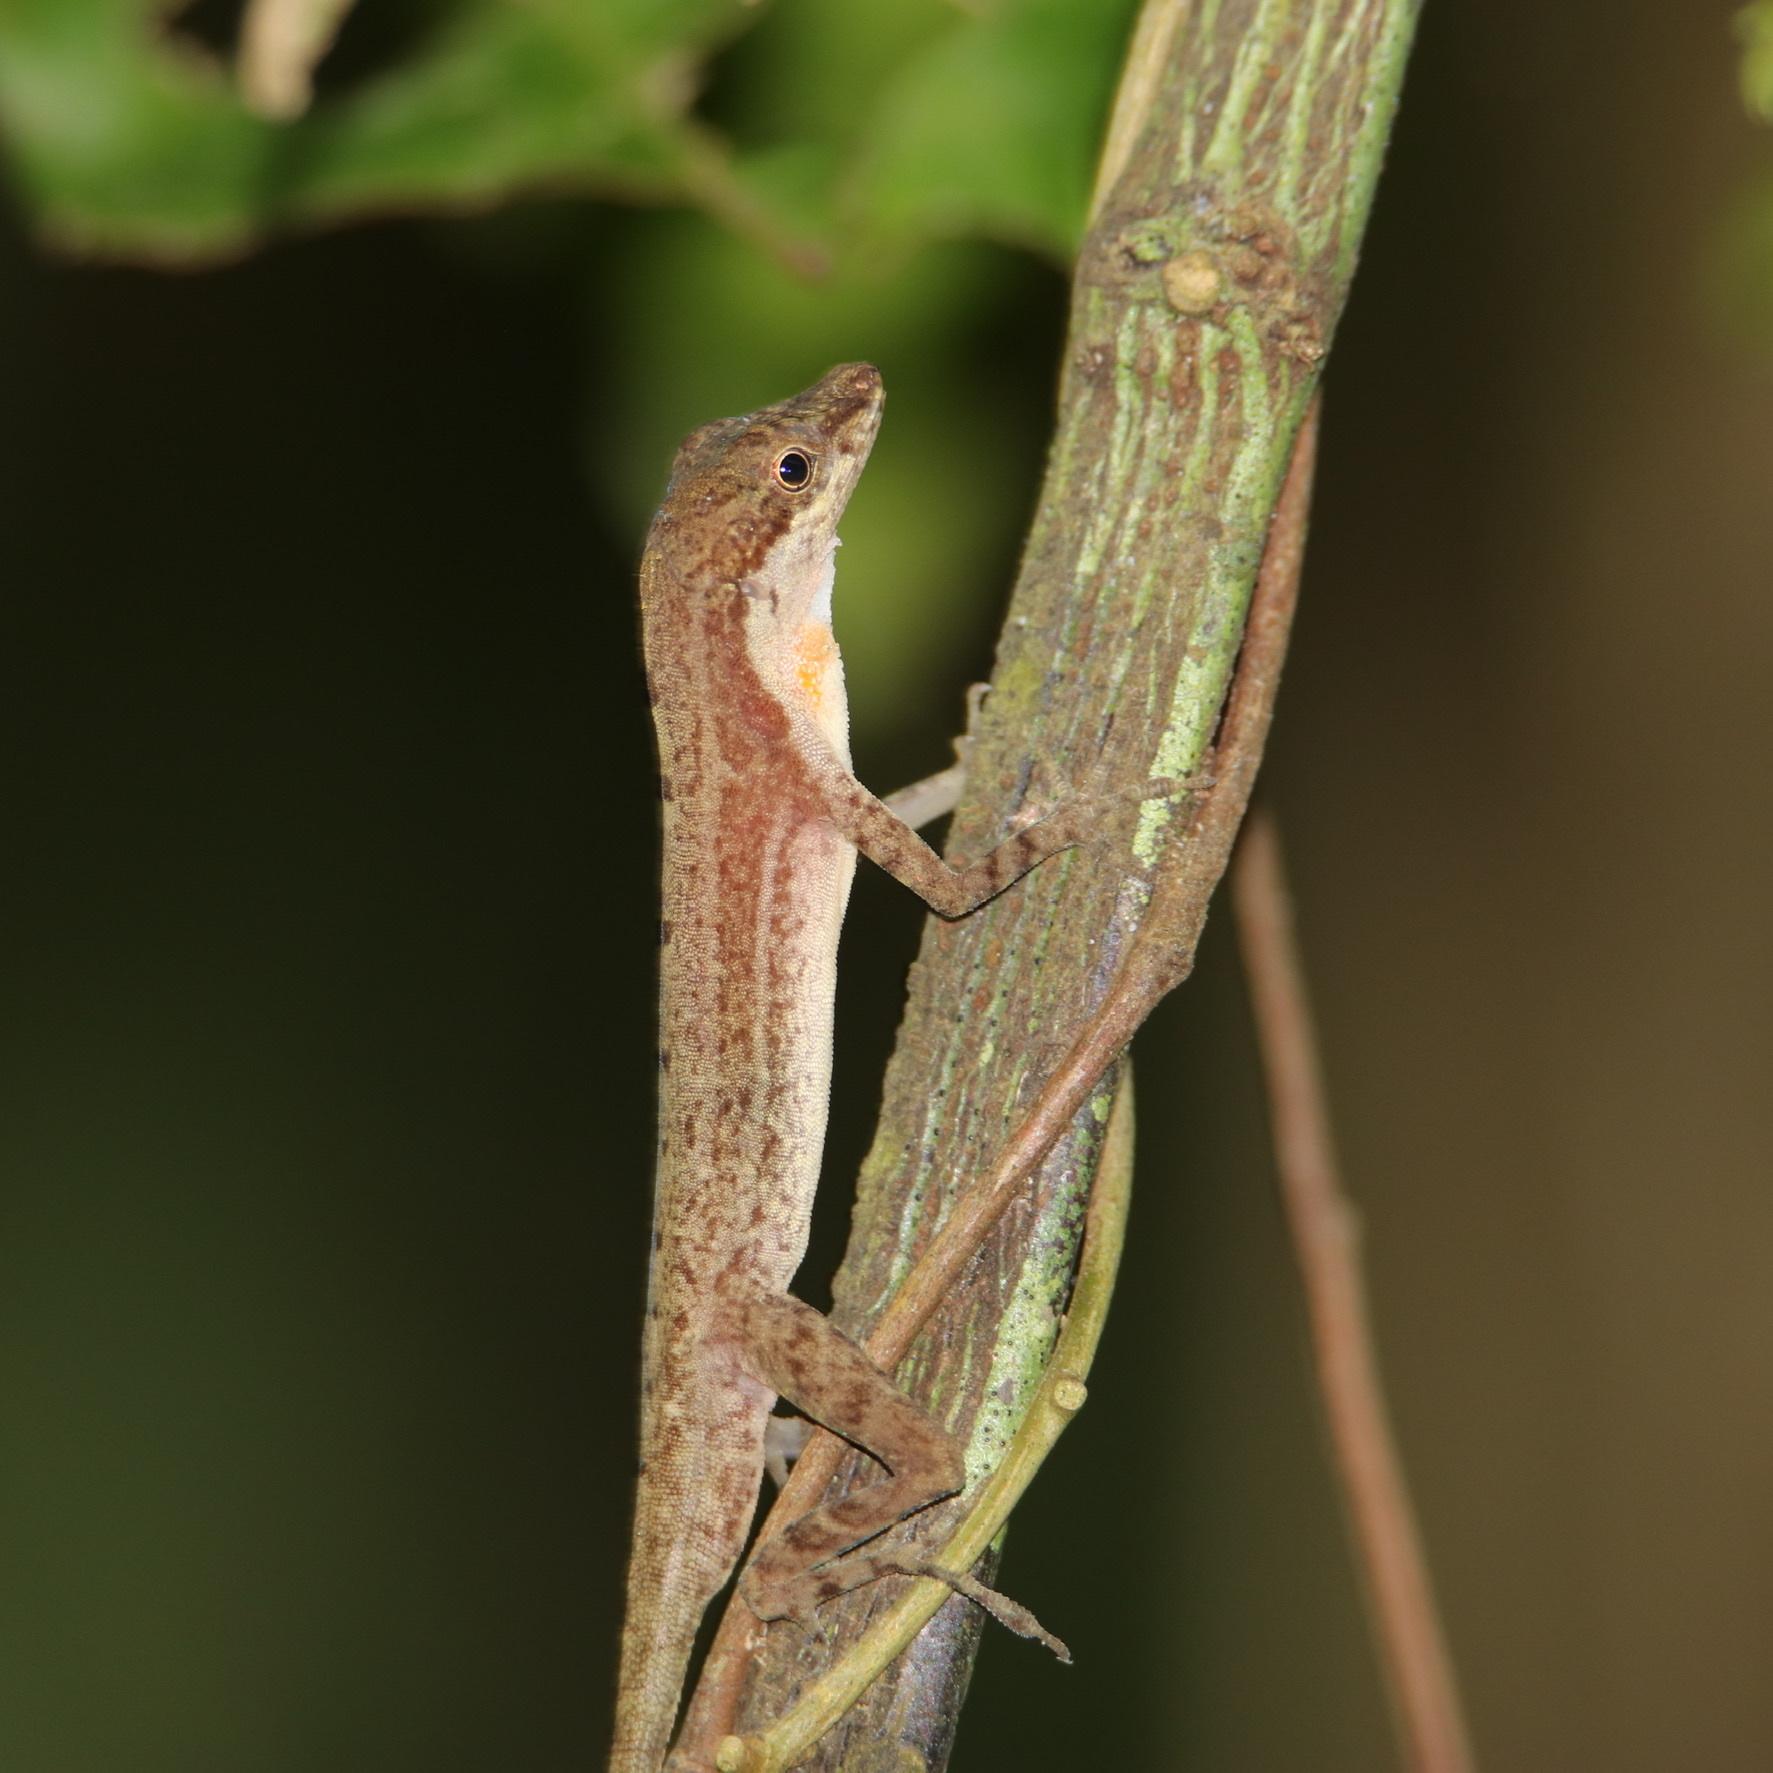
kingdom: Animalia
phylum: Chordata
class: Squamata
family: Dactyloidae
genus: Anolis
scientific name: Anolis apletophallus
